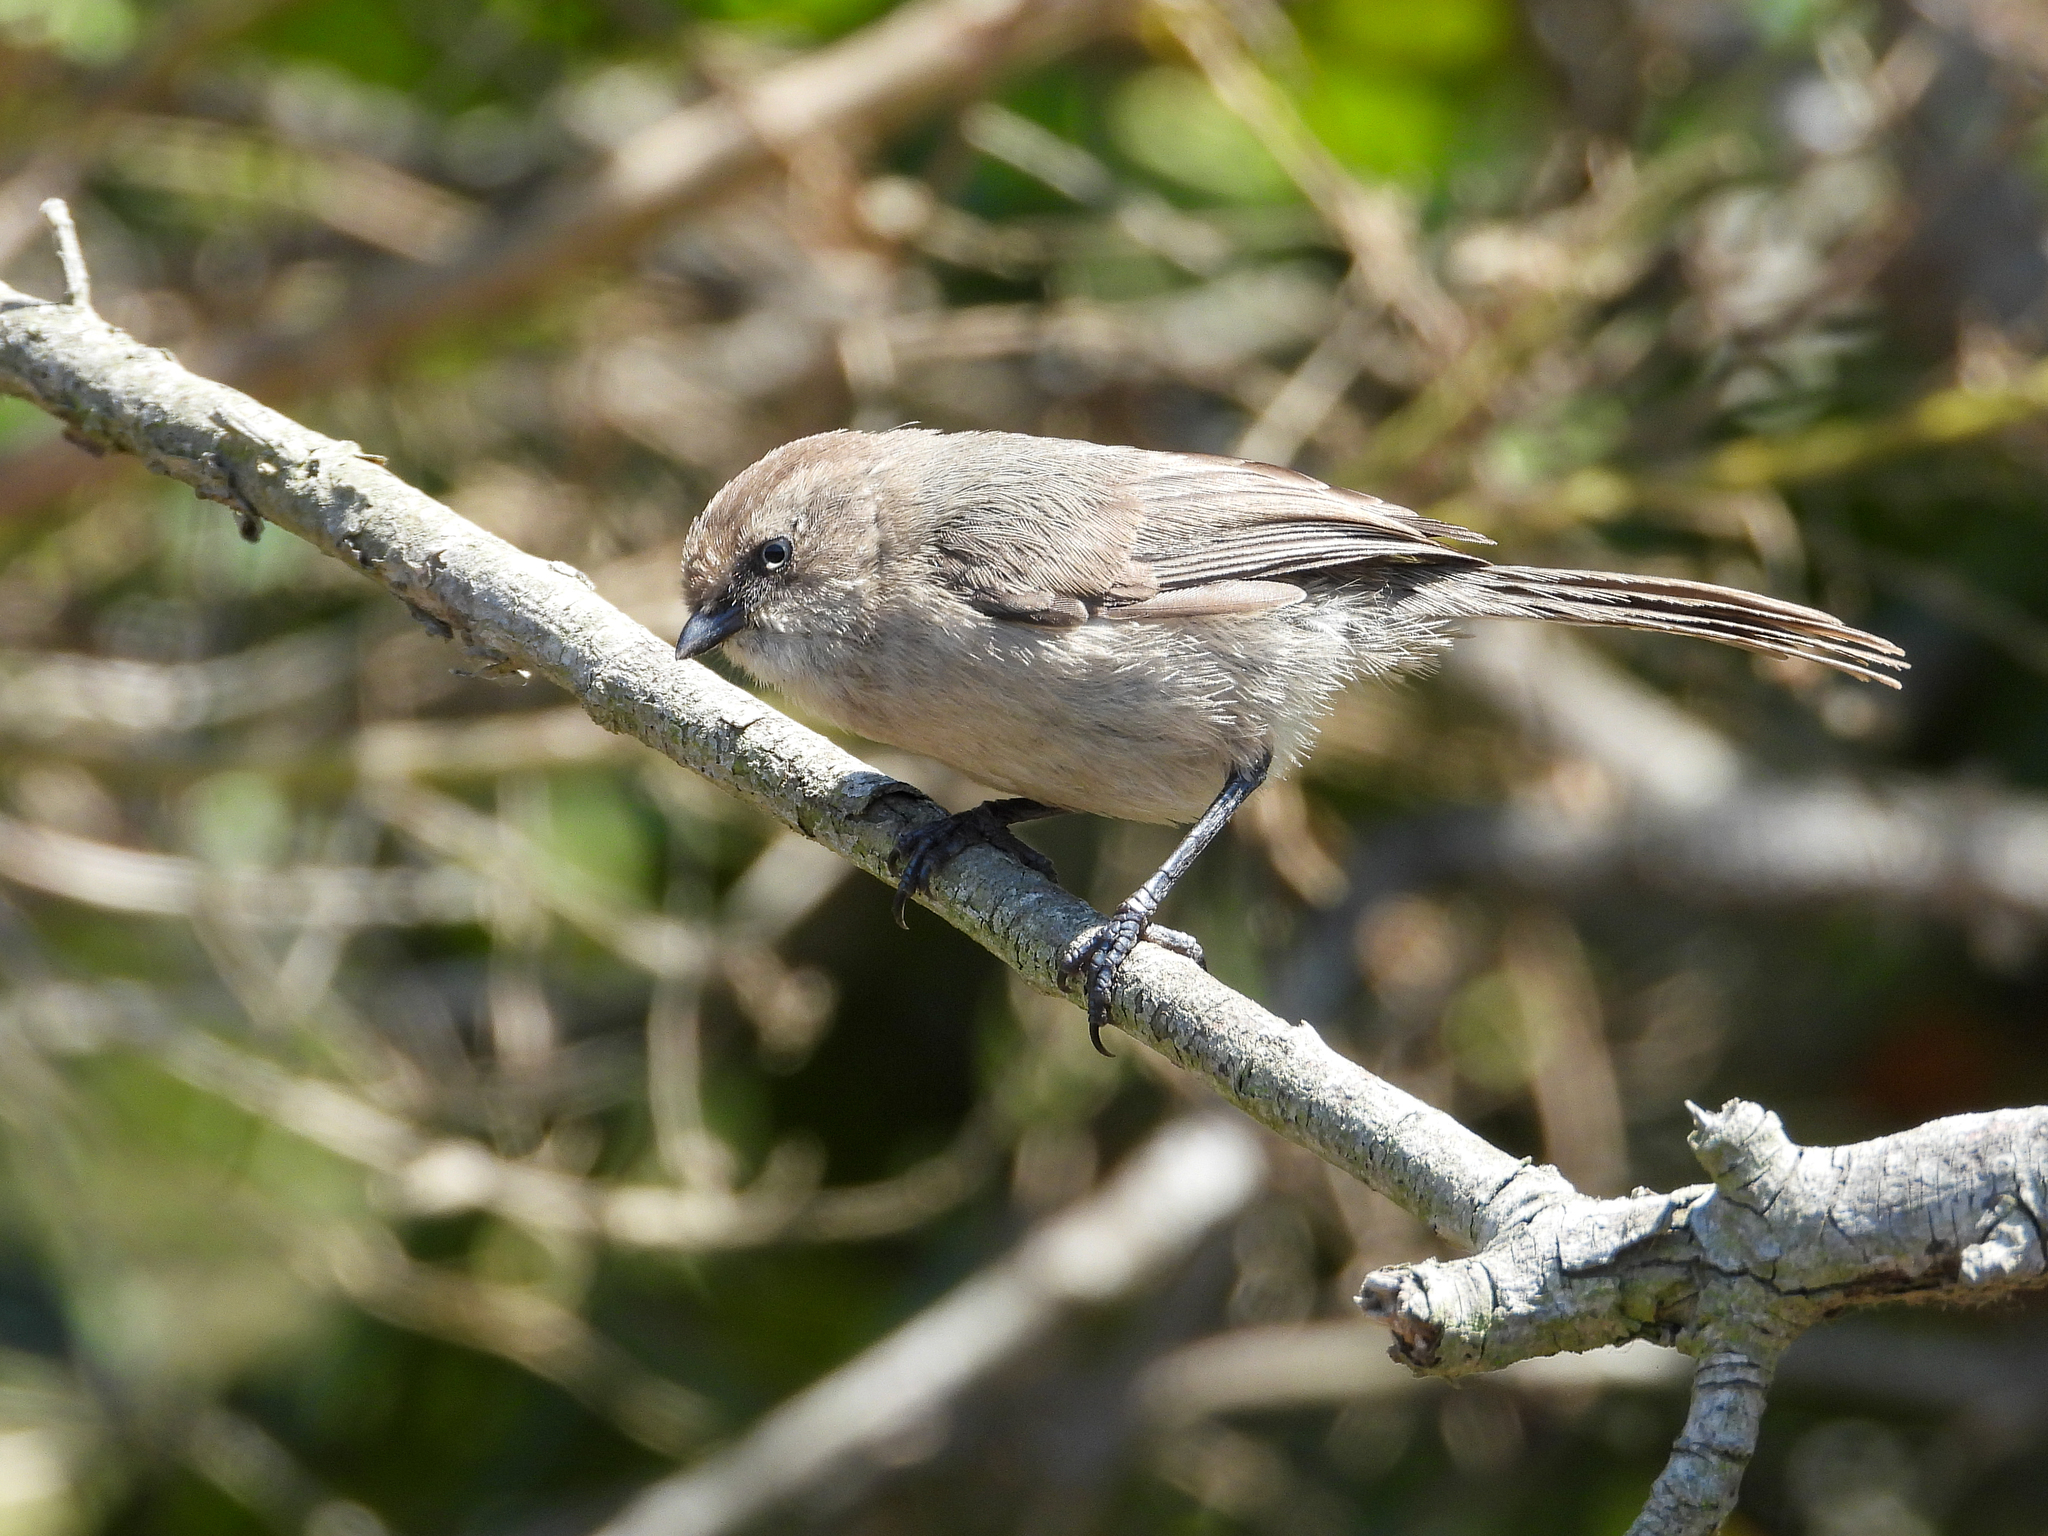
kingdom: Animalia
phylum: Chordata
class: Aves
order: Passeriformes
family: Aegithalidae
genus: Psaltriparus
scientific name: Psaltriparus minimus
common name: American bushtit
